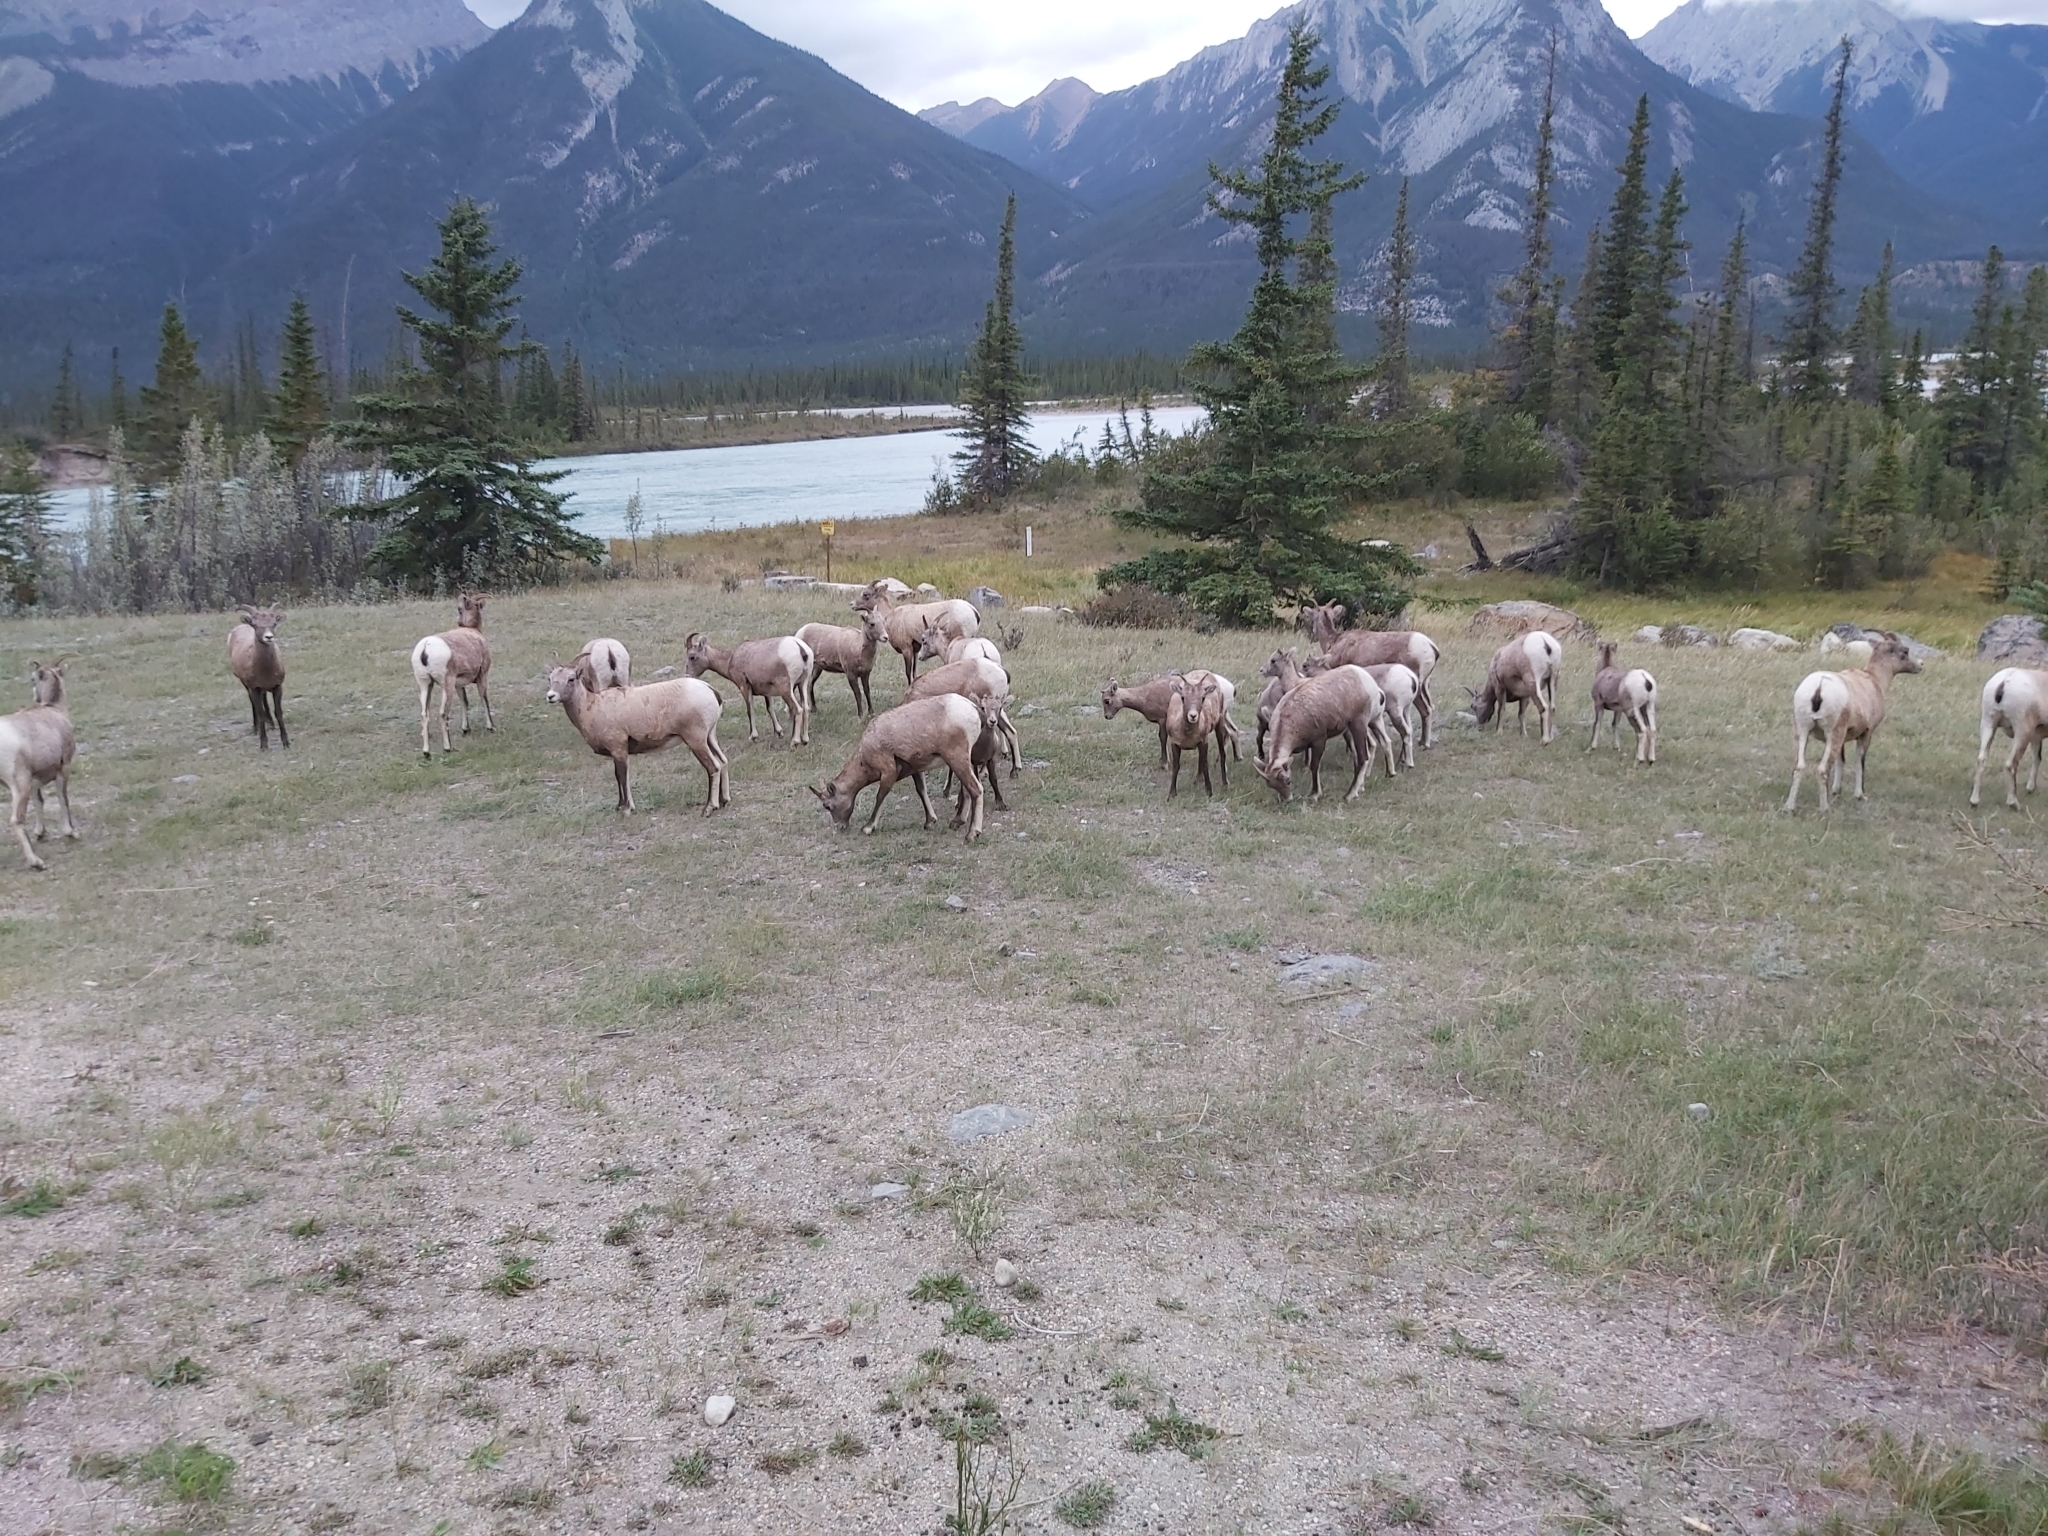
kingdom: Animalia
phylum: Chordata
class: Mammalia
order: Artiodactyla
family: Bovidae
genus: Ovis
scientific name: Ovis canadensis
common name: Bighorn sheep
